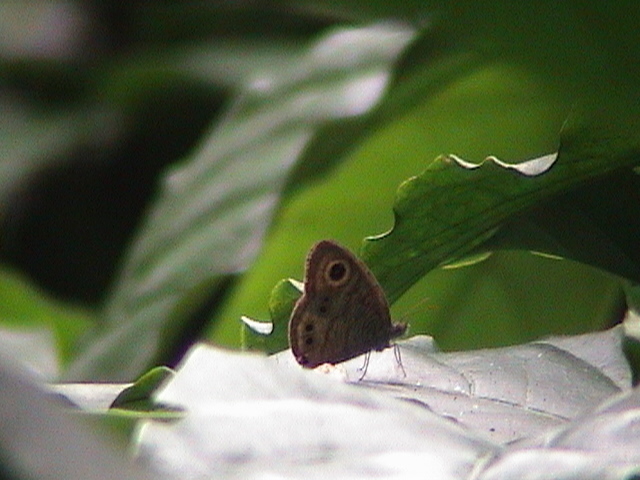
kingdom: Animalia
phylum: Arthropoda
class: Insecta
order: Lepidoptera
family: Nymphalidae
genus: Ypthima
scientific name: Ypthima argus
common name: Common fivering
